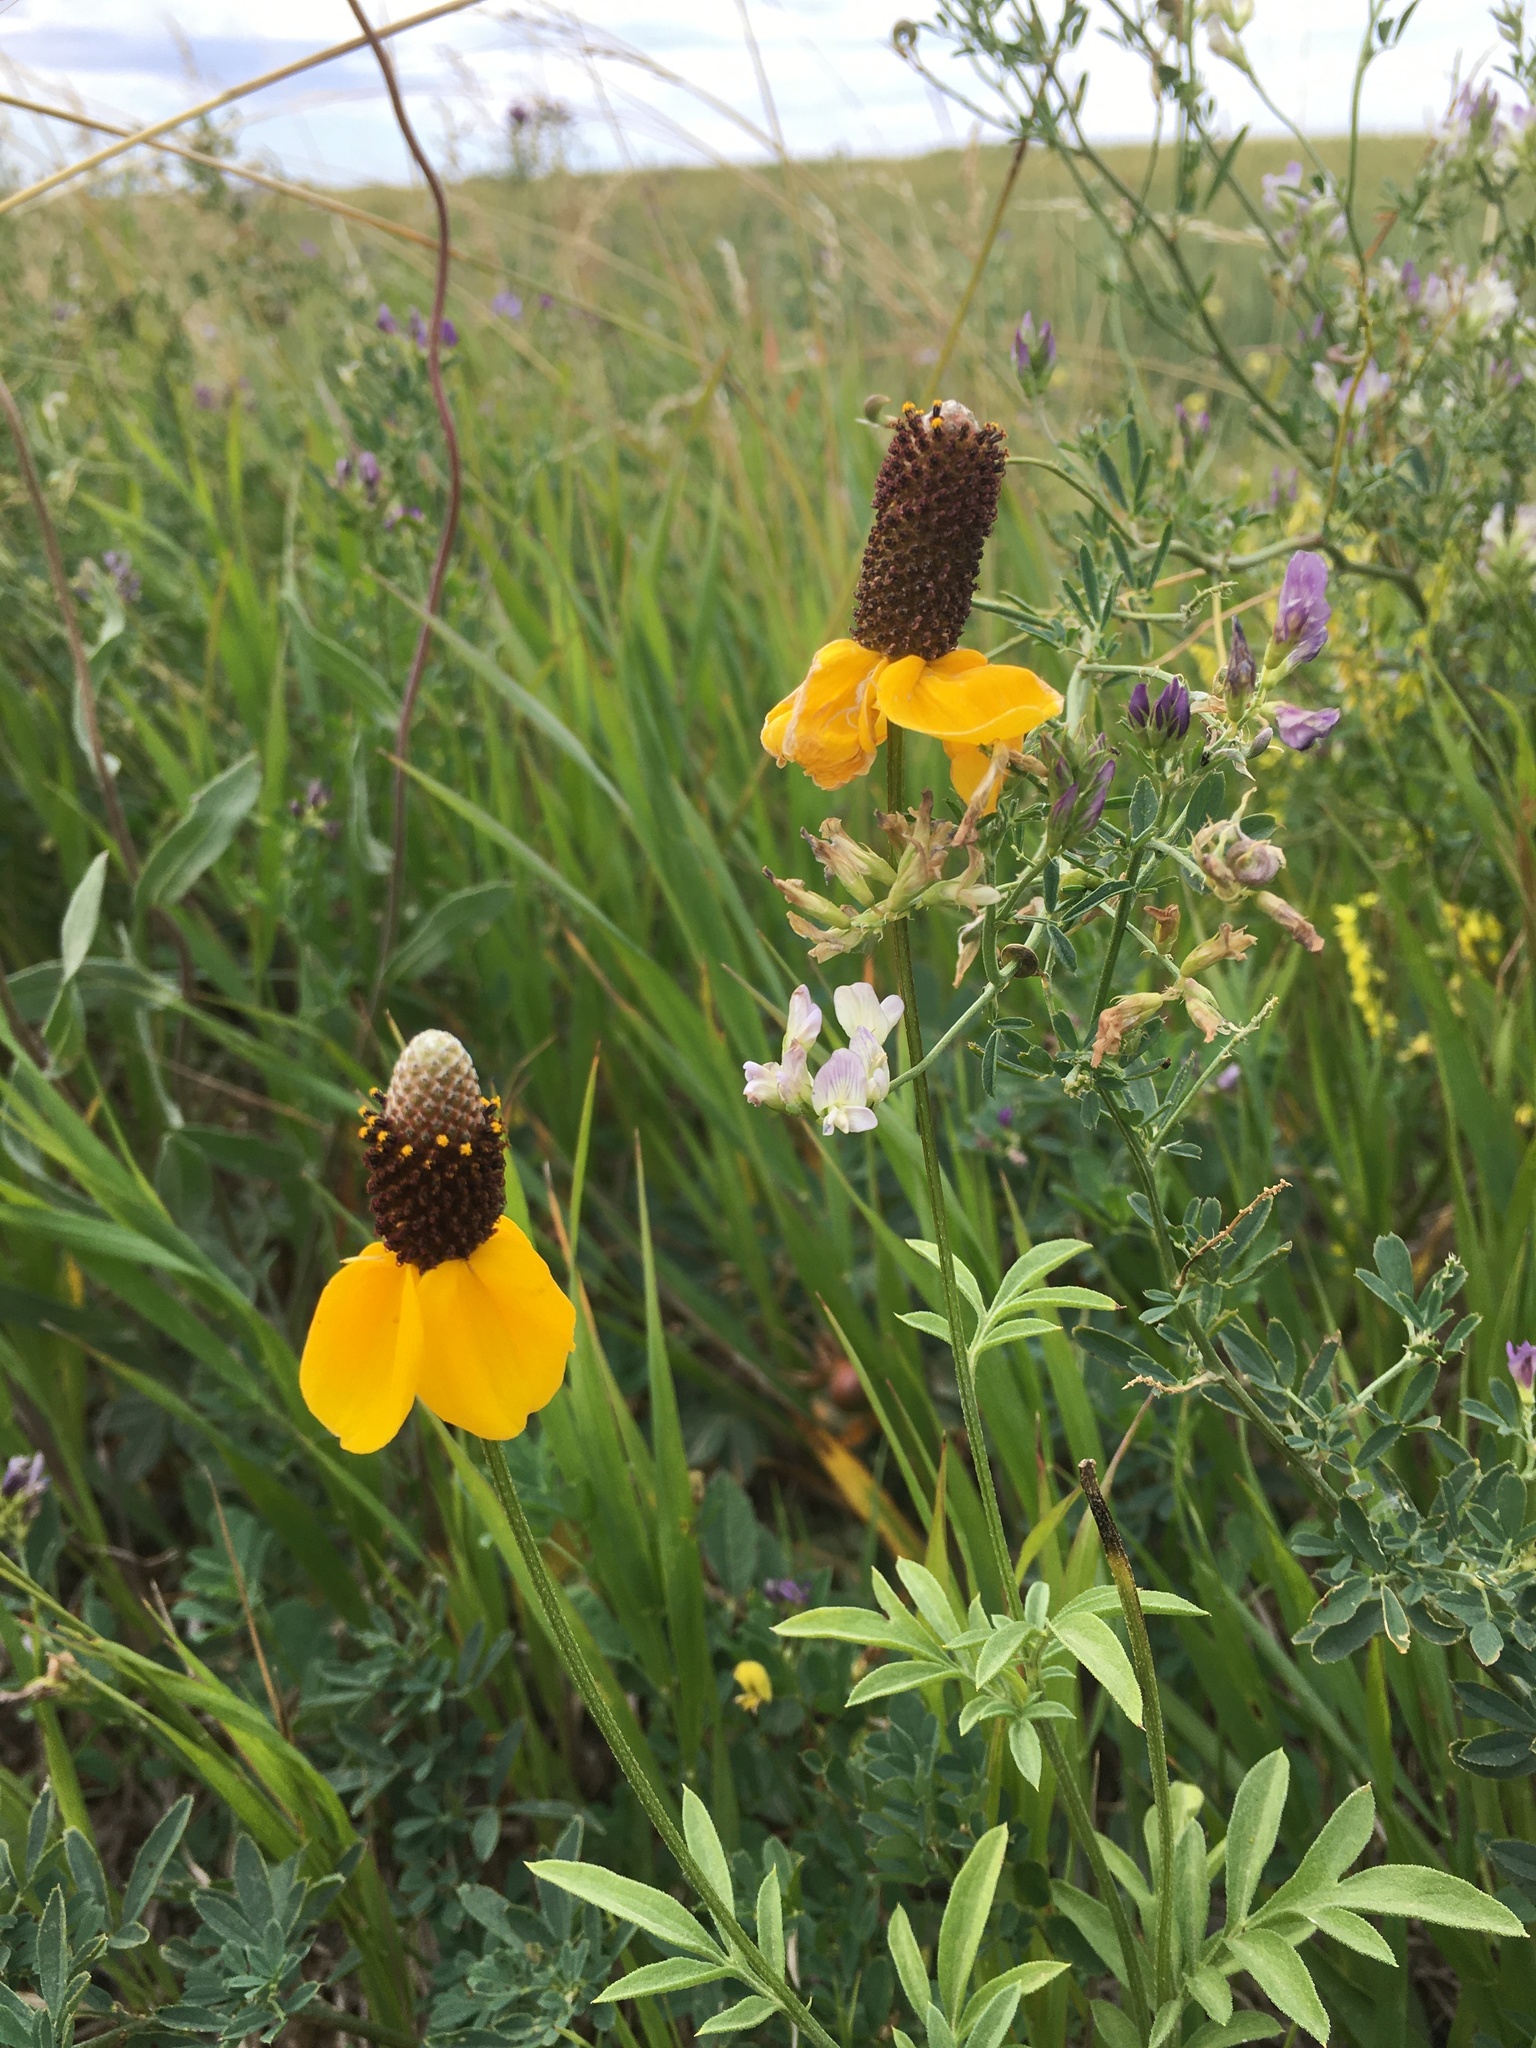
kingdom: Plantae
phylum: Tracheophyta
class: Magnoliopsida
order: Asterales
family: Asteraceae
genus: Ratibida
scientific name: Ratibida columnifera
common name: Prairie coneflower
